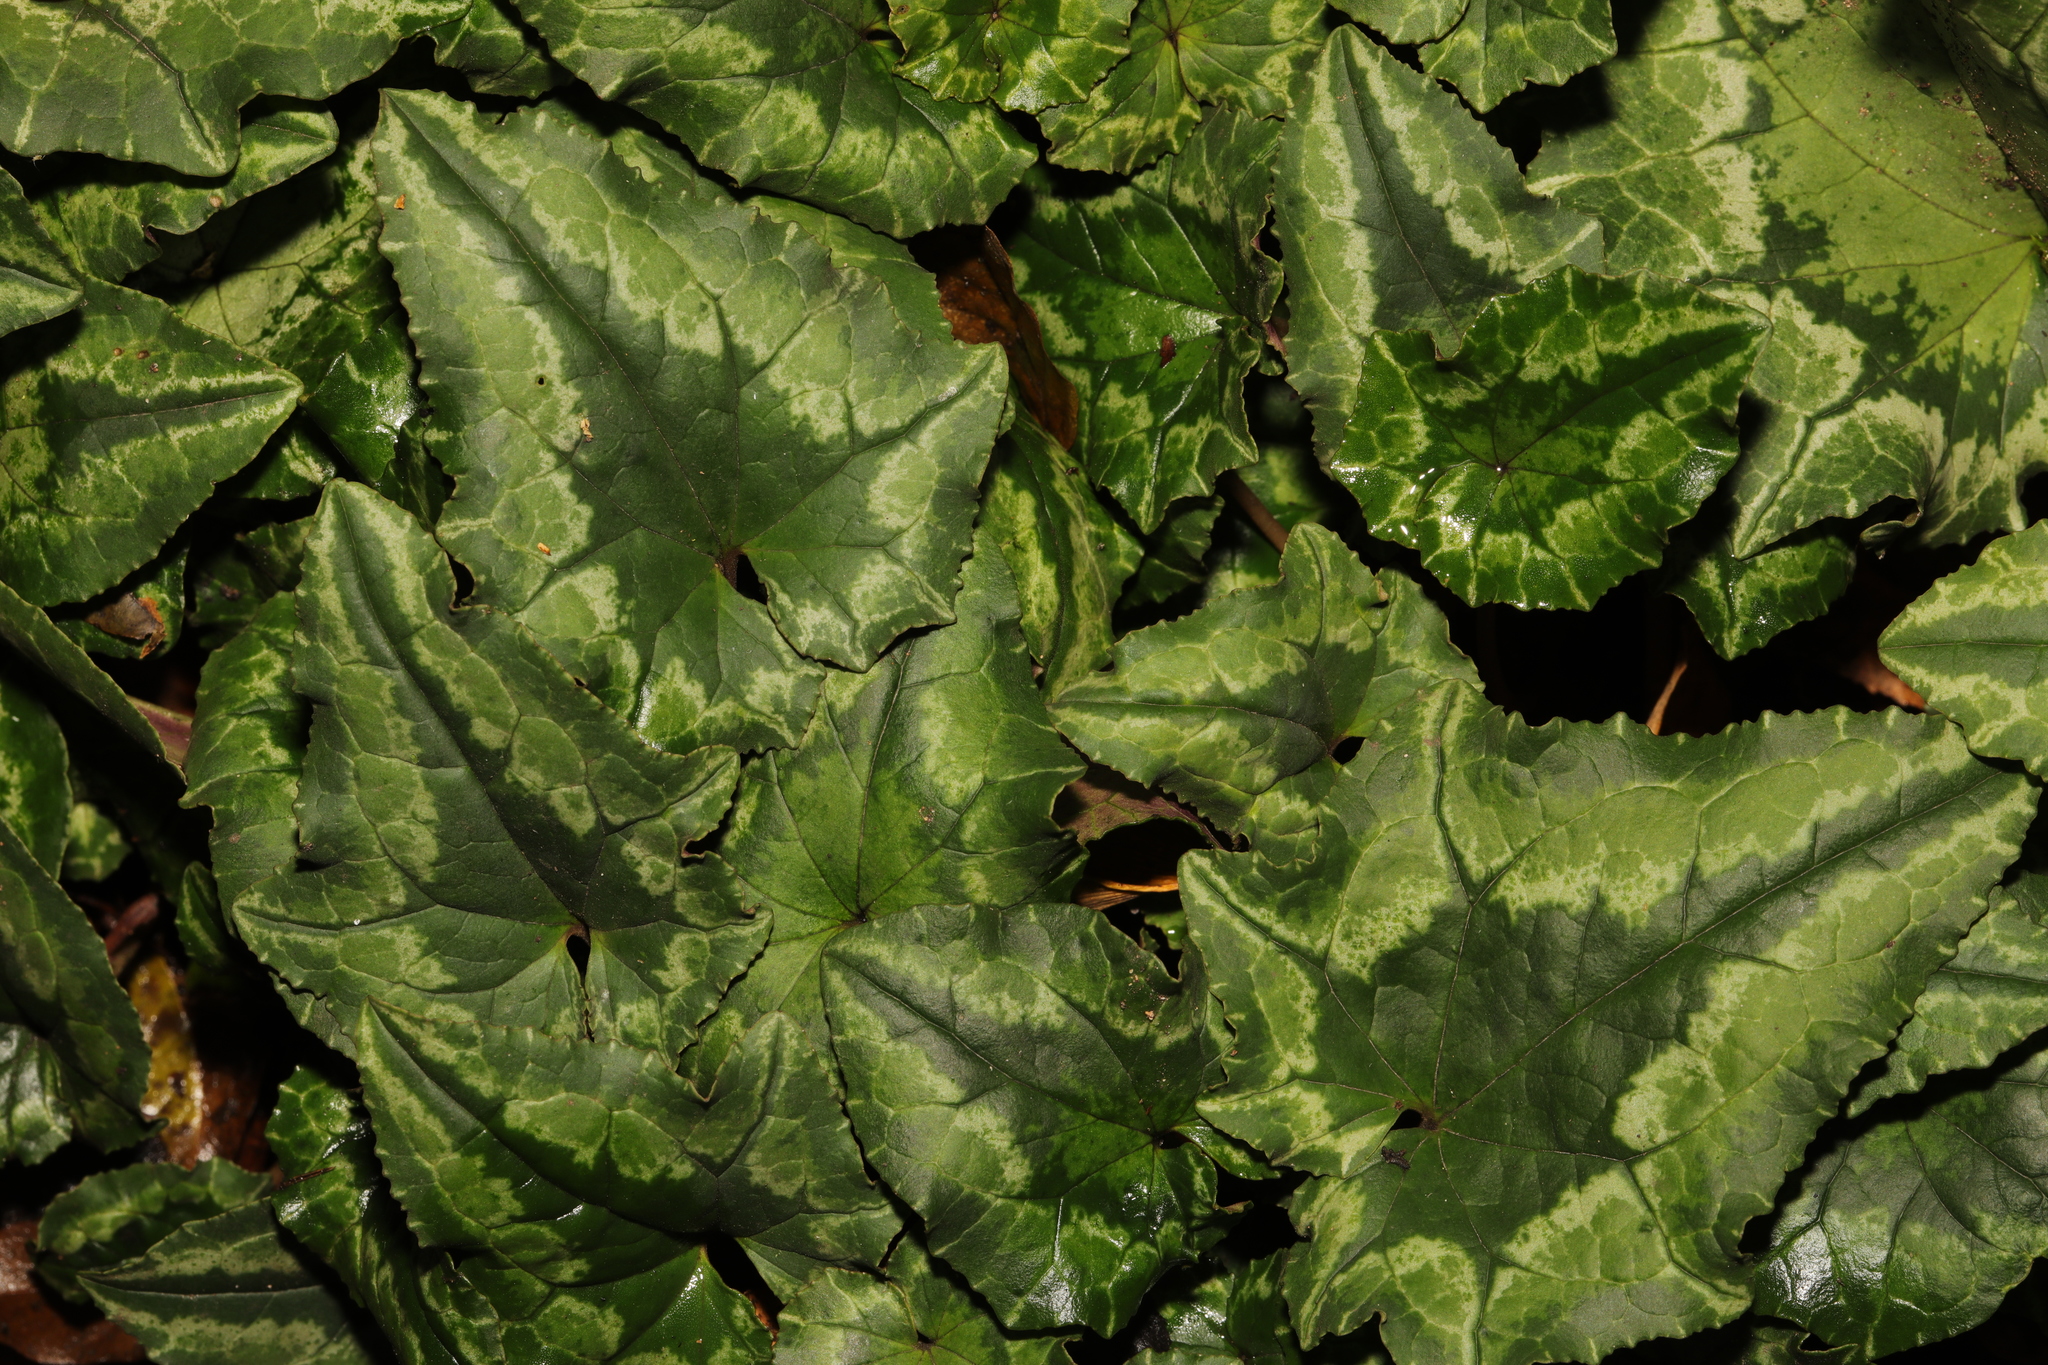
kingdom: Plantae
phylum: Tracheophyta
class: Magnoliopsida
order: Ericales
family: Primulaceae
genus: Cyclamen
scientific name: Cyclamen hederifolium
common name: Sowbread
